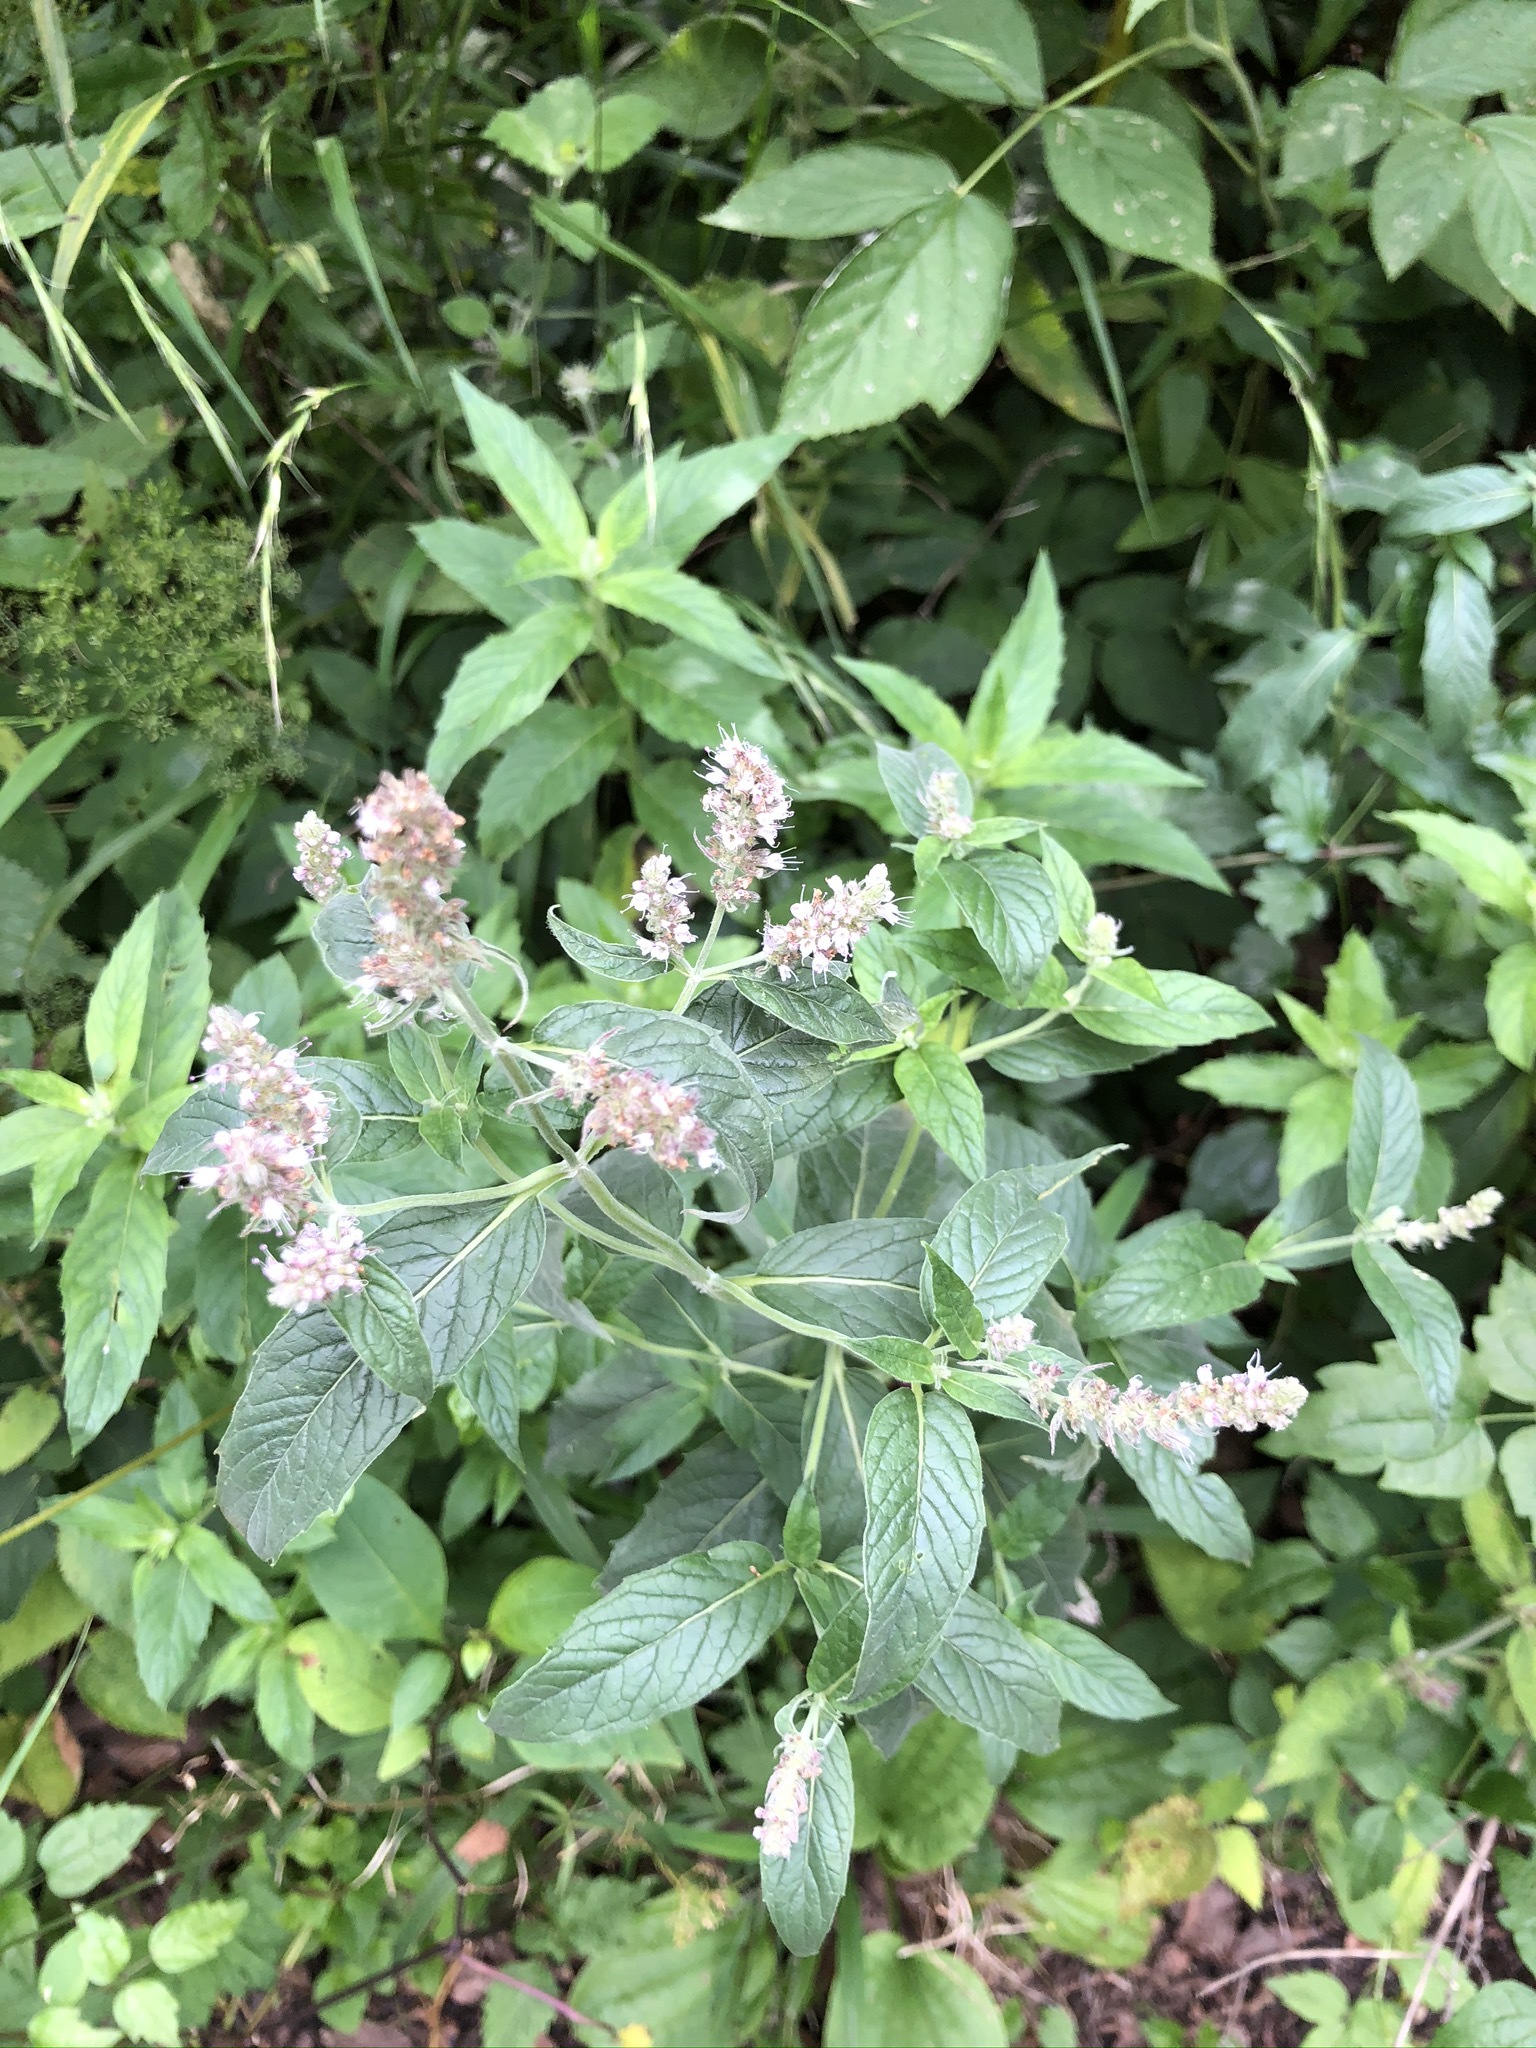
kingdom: Plantae
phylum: Tracheophyta
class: Magnoliopsida
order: Lamiales
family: Lamiaceae
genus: Mentha
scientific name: Mentha dumetorum
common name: Bush-loving mint
